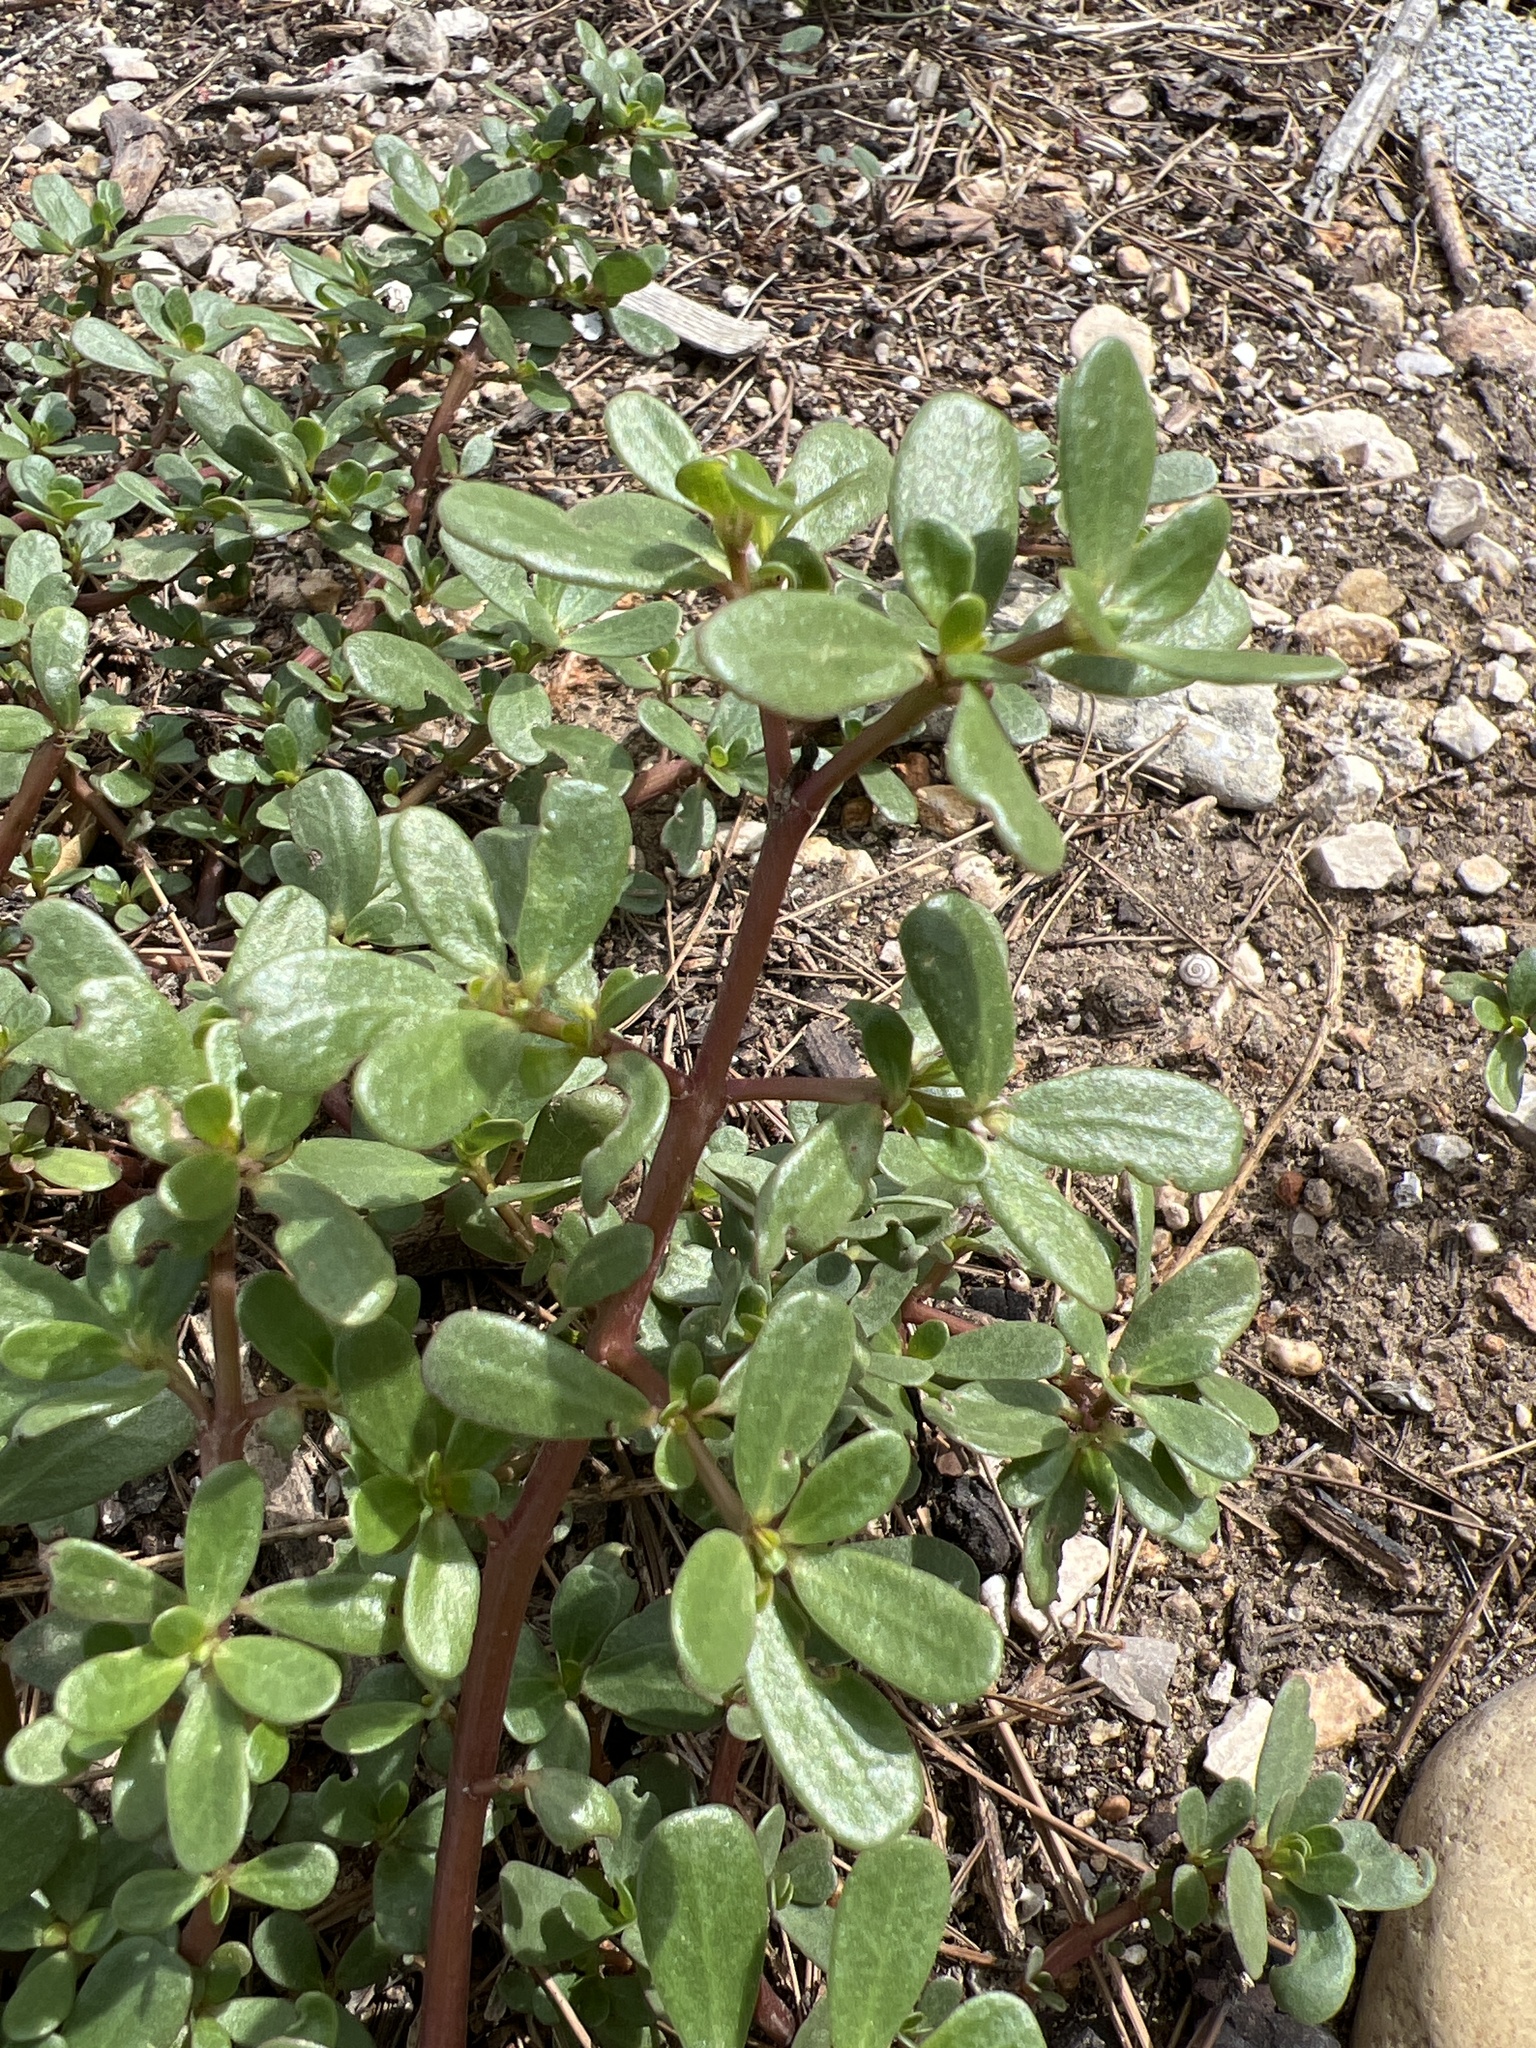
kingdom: Plantae
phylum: Tracheophyta
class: Magnoliopsida
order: Caryophyllales
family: Portulacaceae
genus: Portulaca
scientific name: Portulaca oleracea
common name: Common purslane
